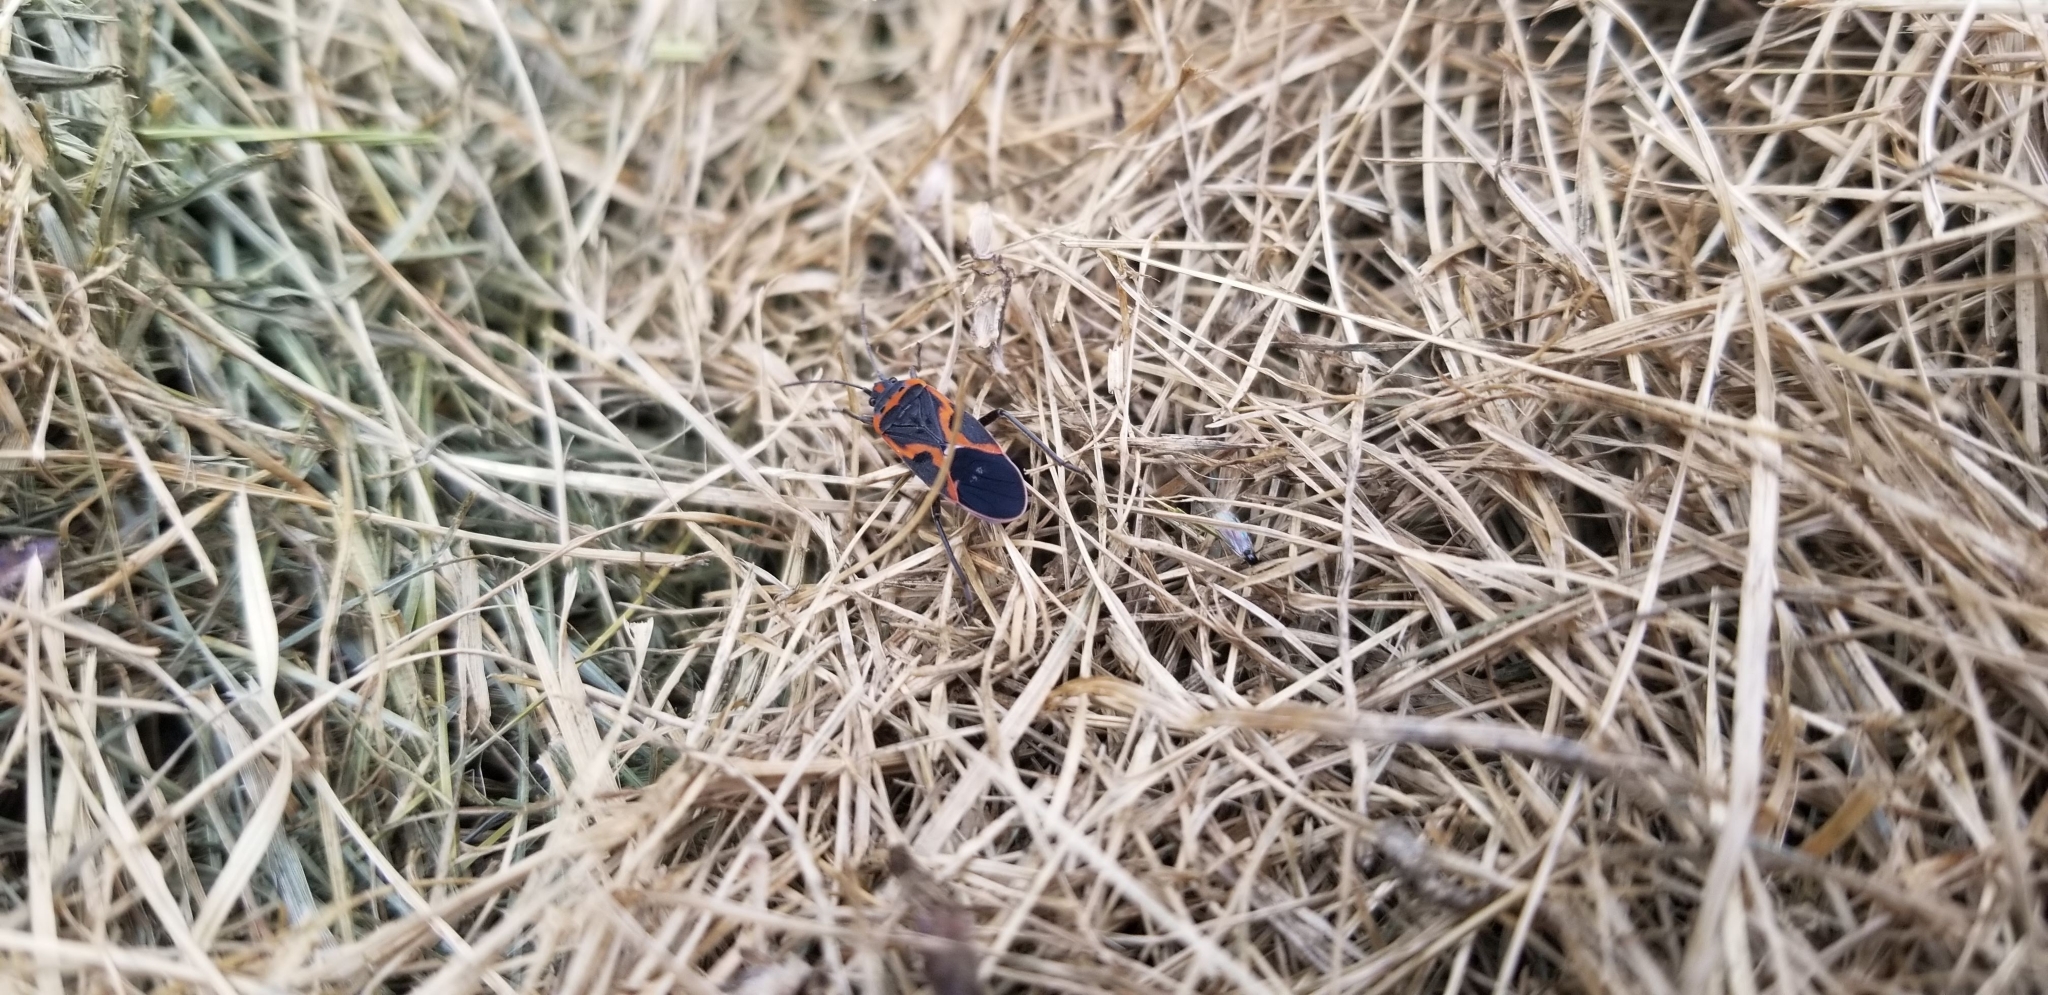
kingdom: Animalia
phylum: Arthropoda
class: Insecta
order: Hemiptera
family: Lygaeidae
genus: Lygaeus
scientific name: Lygaeus kalmii
